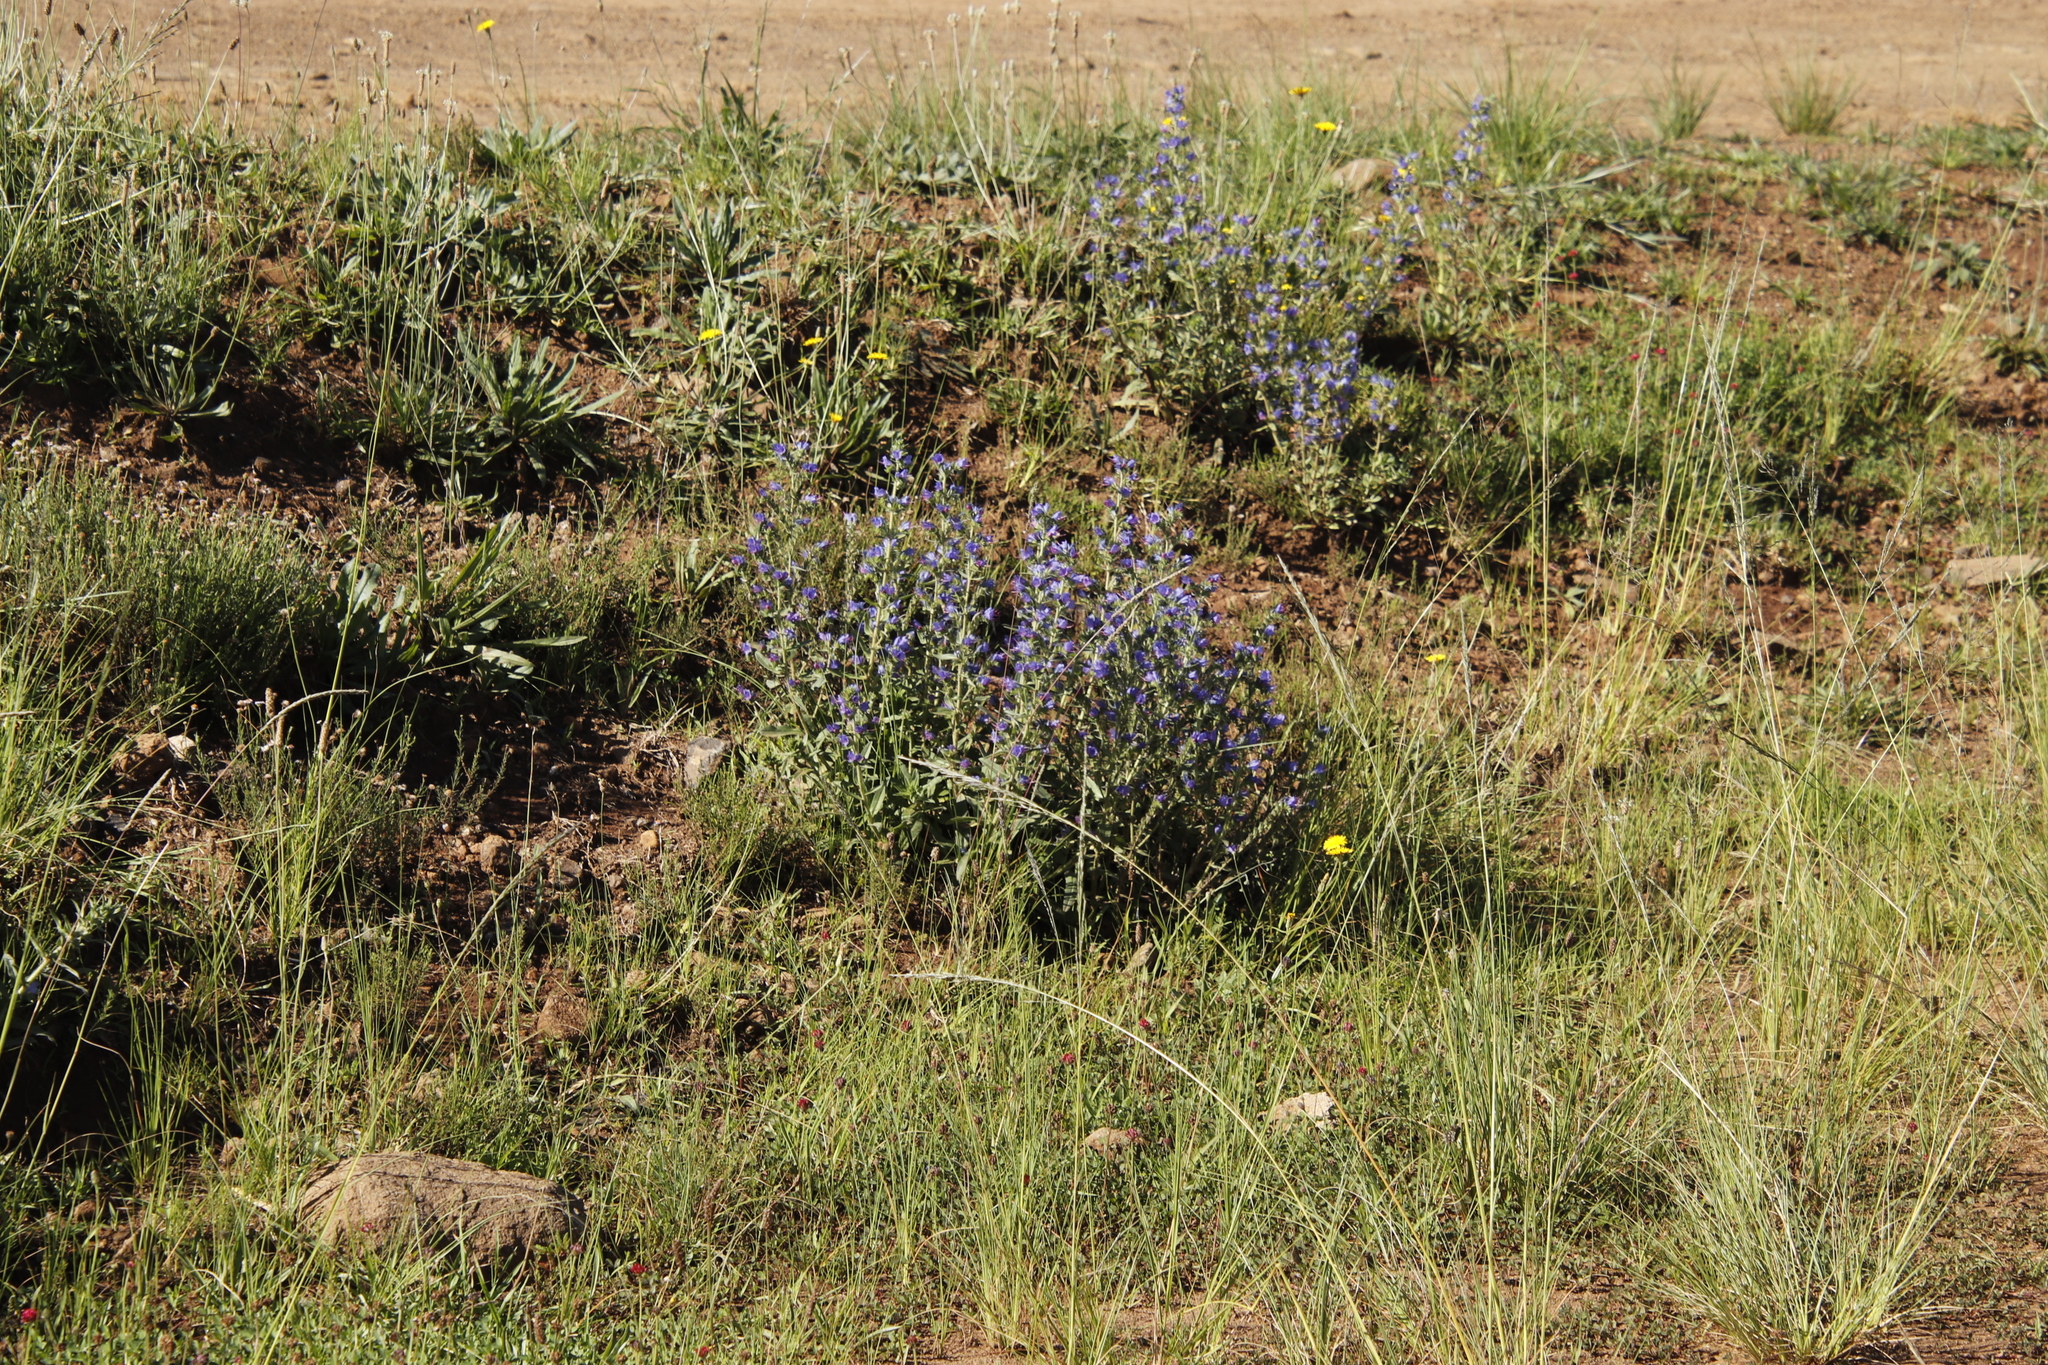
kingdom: Plantae
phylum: Tracheophyta
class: Magnoliopsida
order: Boraginales
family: Boraginaceae
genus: Echium
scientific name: Echium vulgare
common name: Common viper's bugloss
